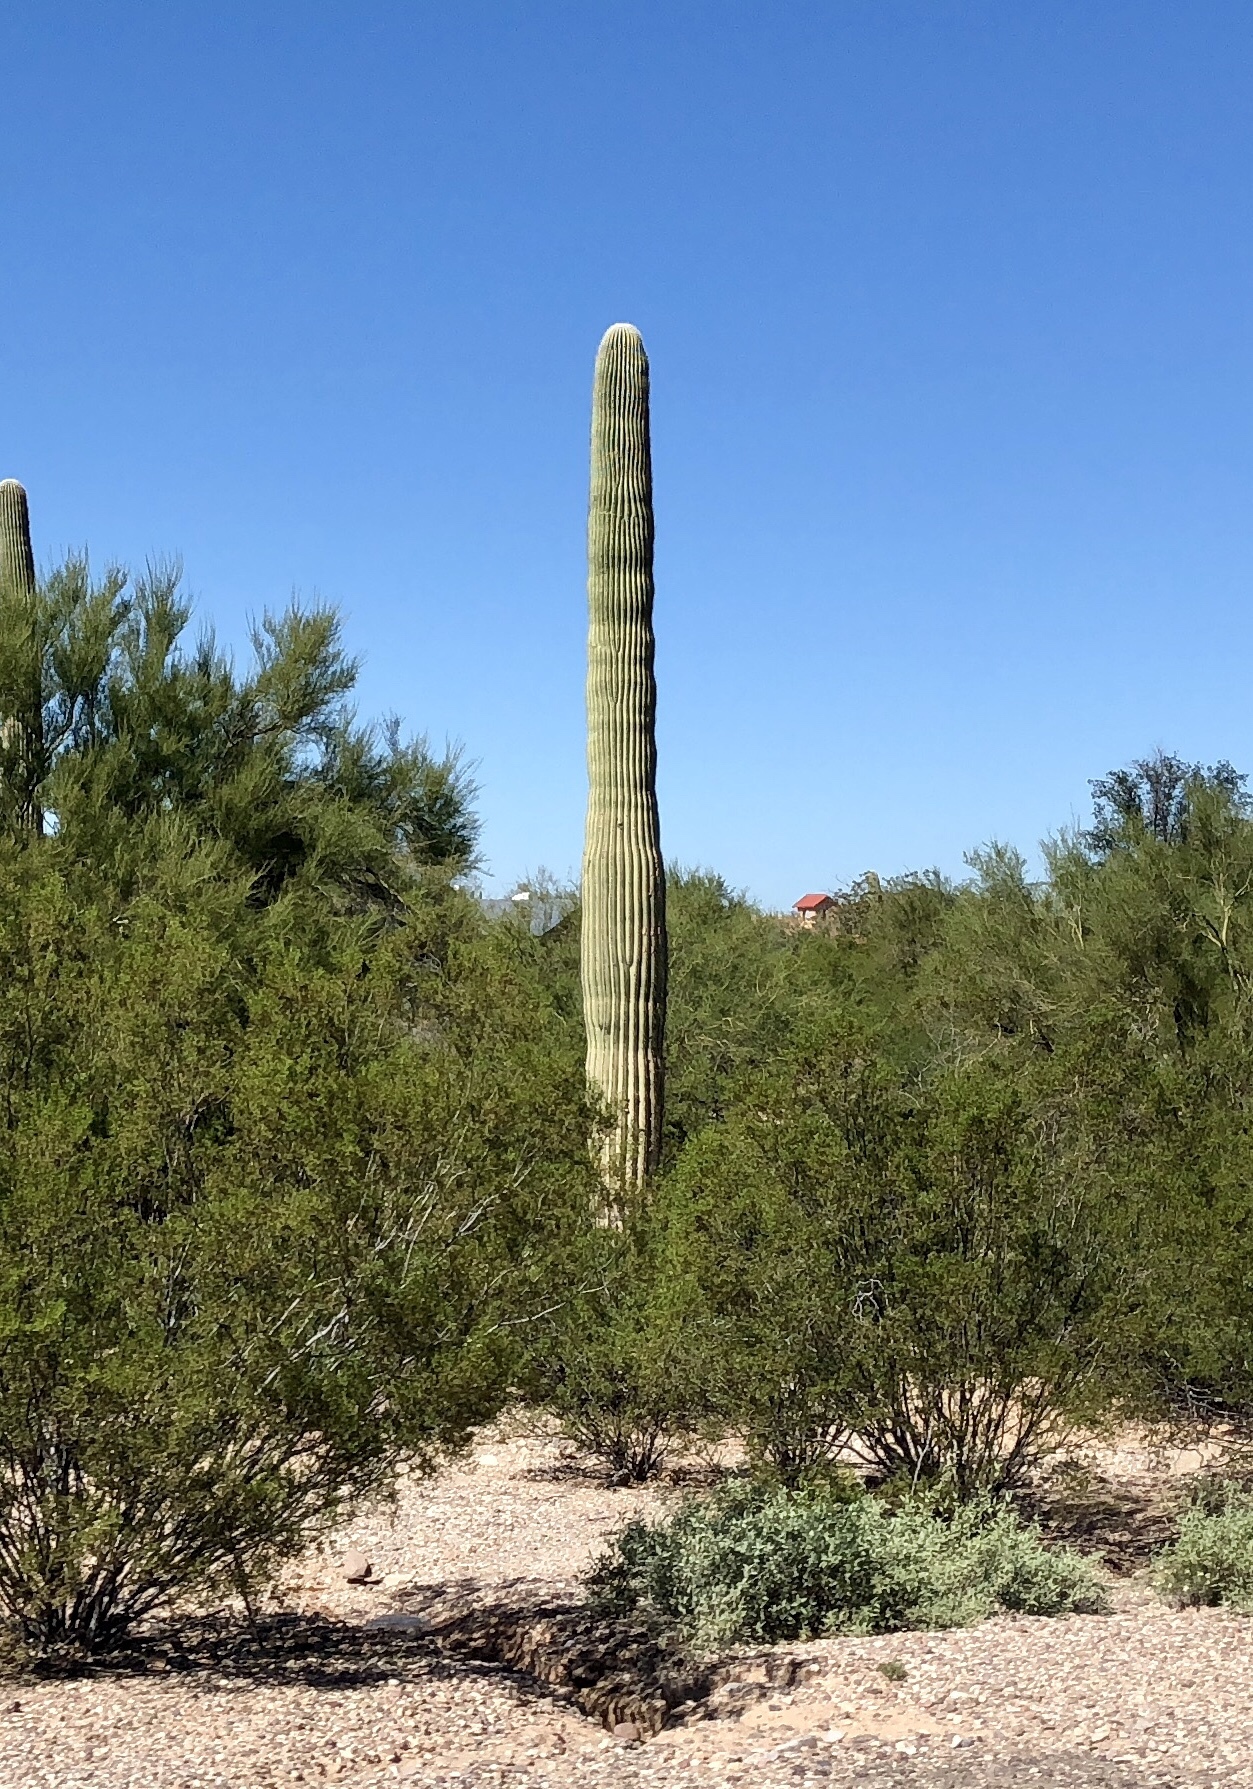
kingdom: Plantae
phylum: Tracheophyta
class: Magnoliopsida
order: Caryophyllales
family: Cactaceae
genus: Carnegiea
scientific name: Carnegiea gigantea
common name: Saguaro
